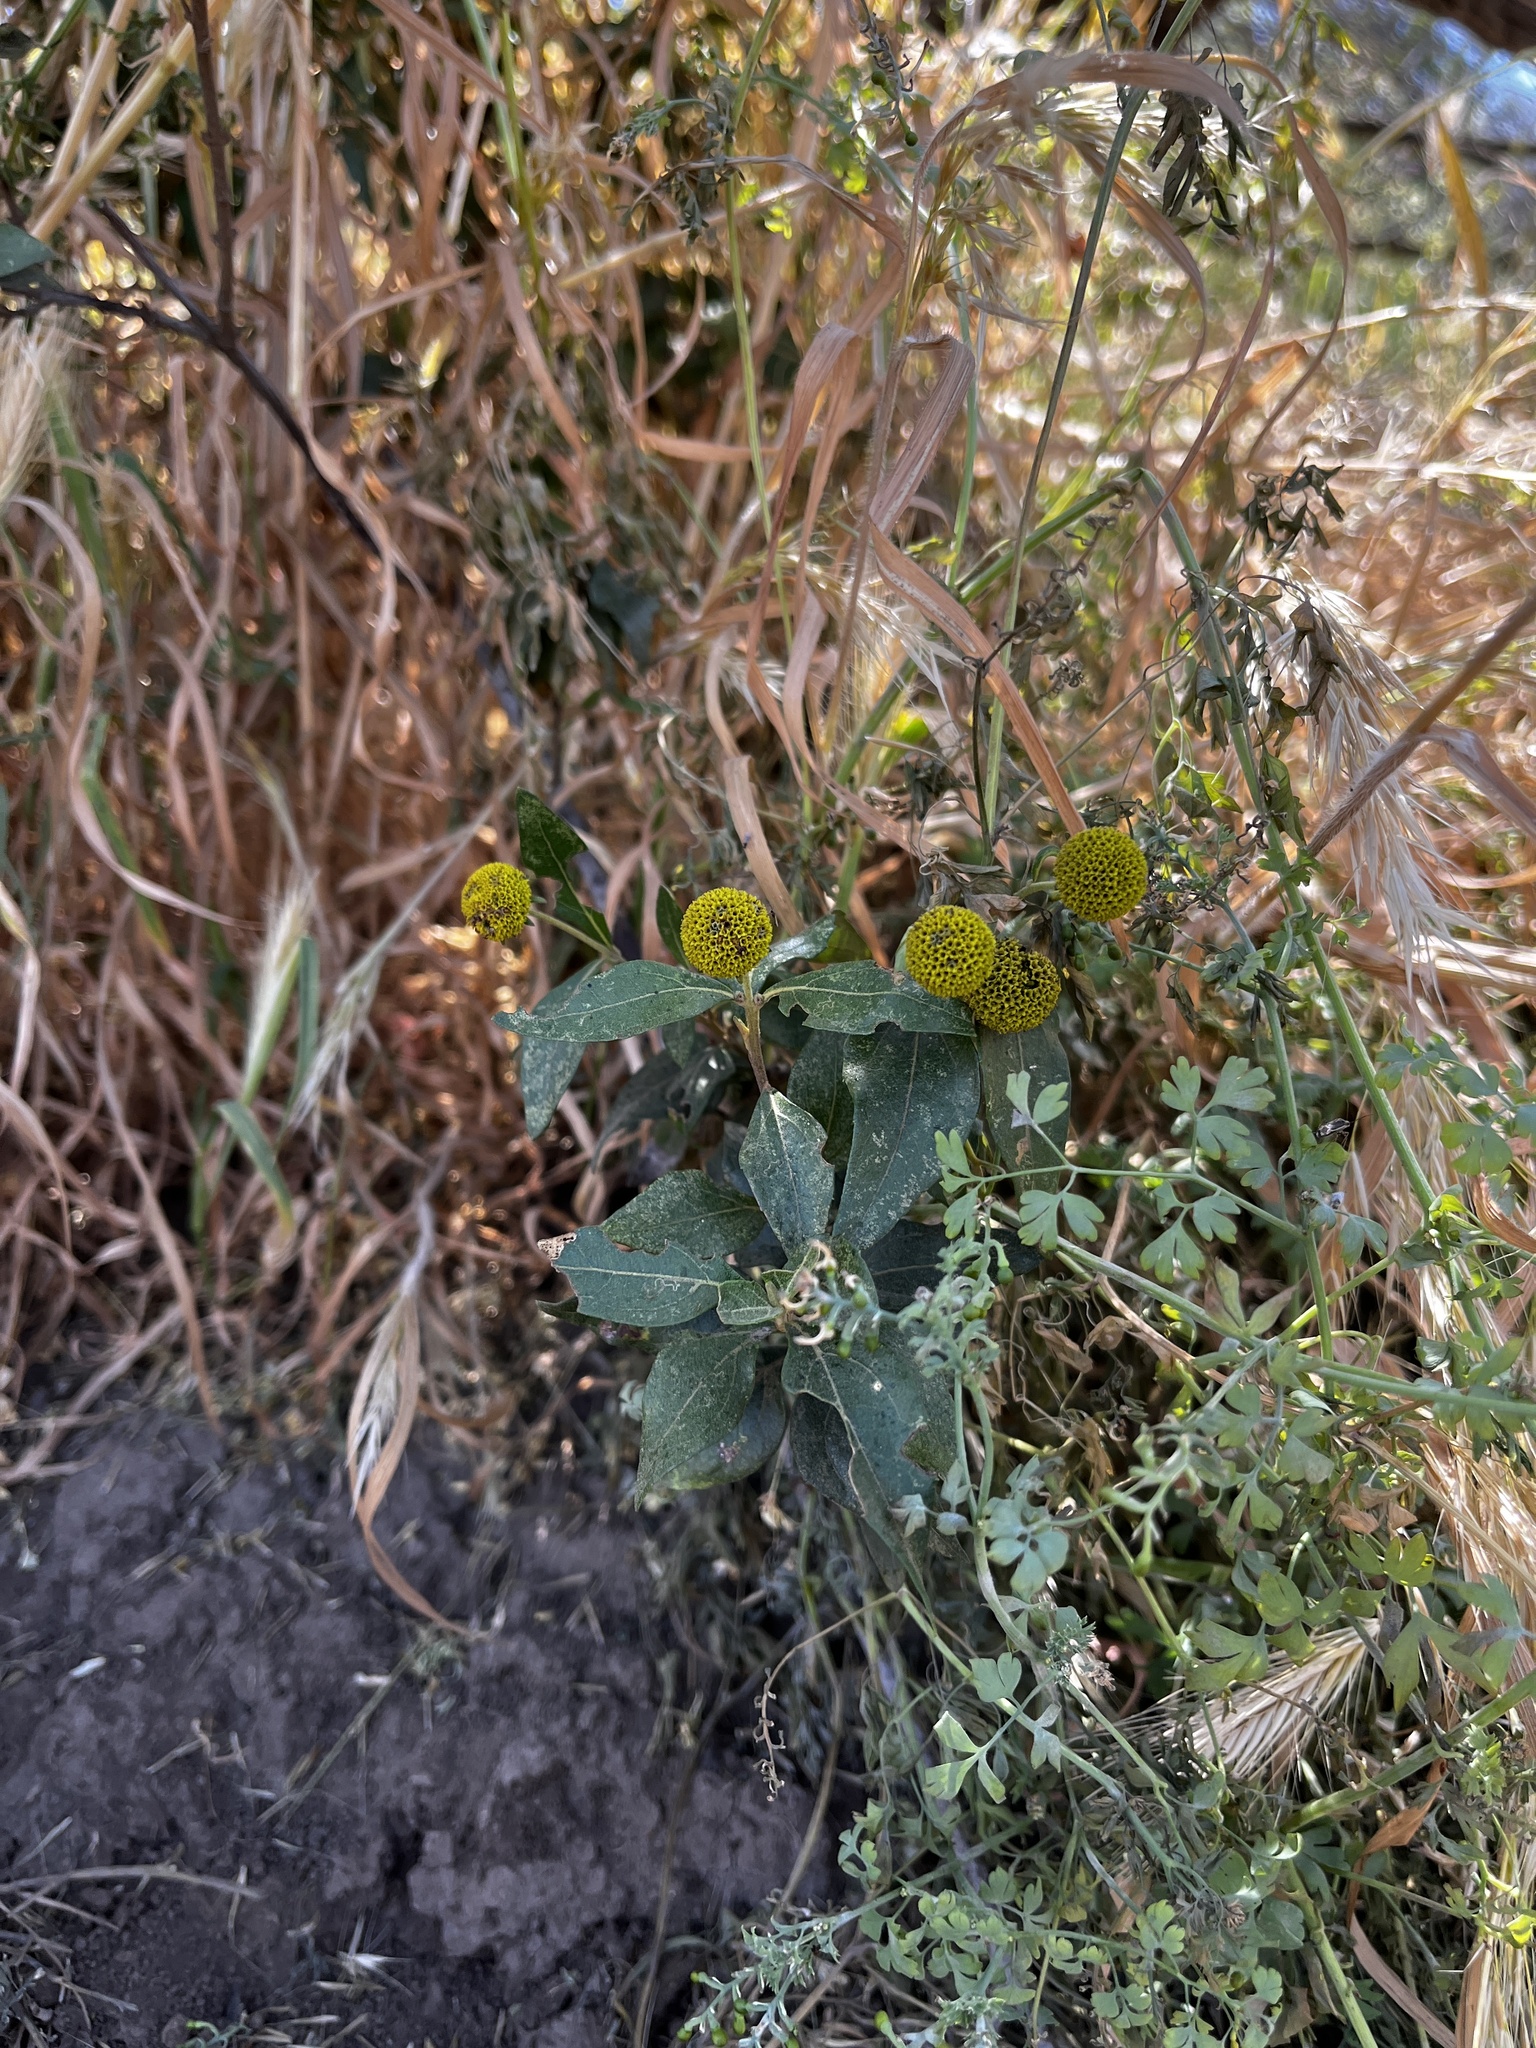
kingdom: Plantae
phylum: Tracheophyta
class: Magnoliopsida
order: Asterales
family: Asteraceae
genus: Podanthus
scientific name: Podanthus mitiqui
